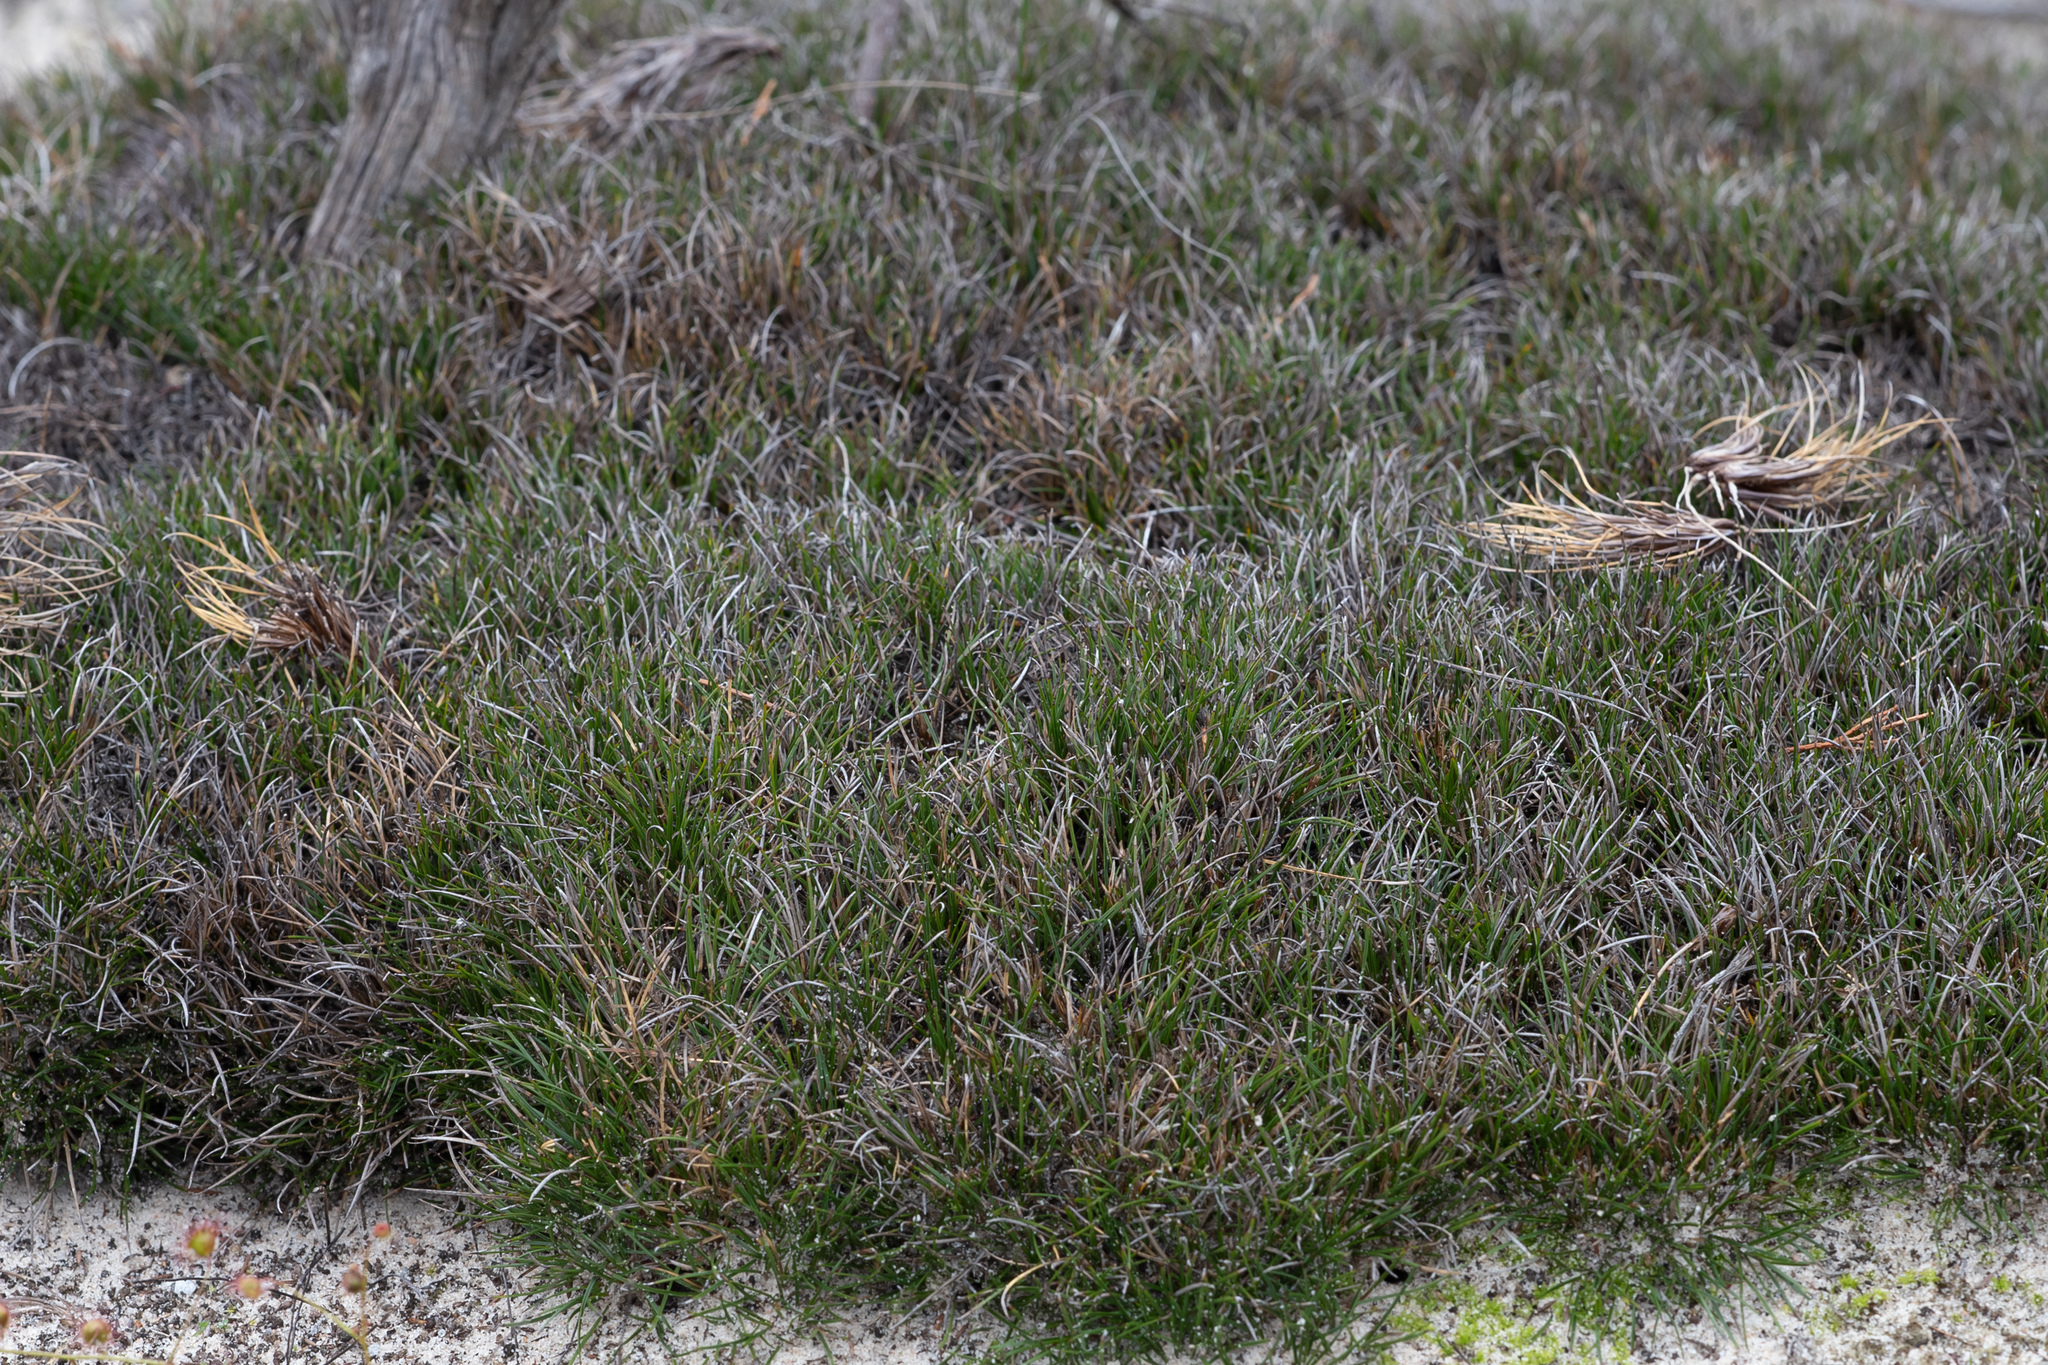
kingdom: Plantae
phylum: Tracheophyta
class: Liliopsida
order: Poales
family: Cyperaceae
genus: Schoenus
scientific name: Schoenus breviculmis
